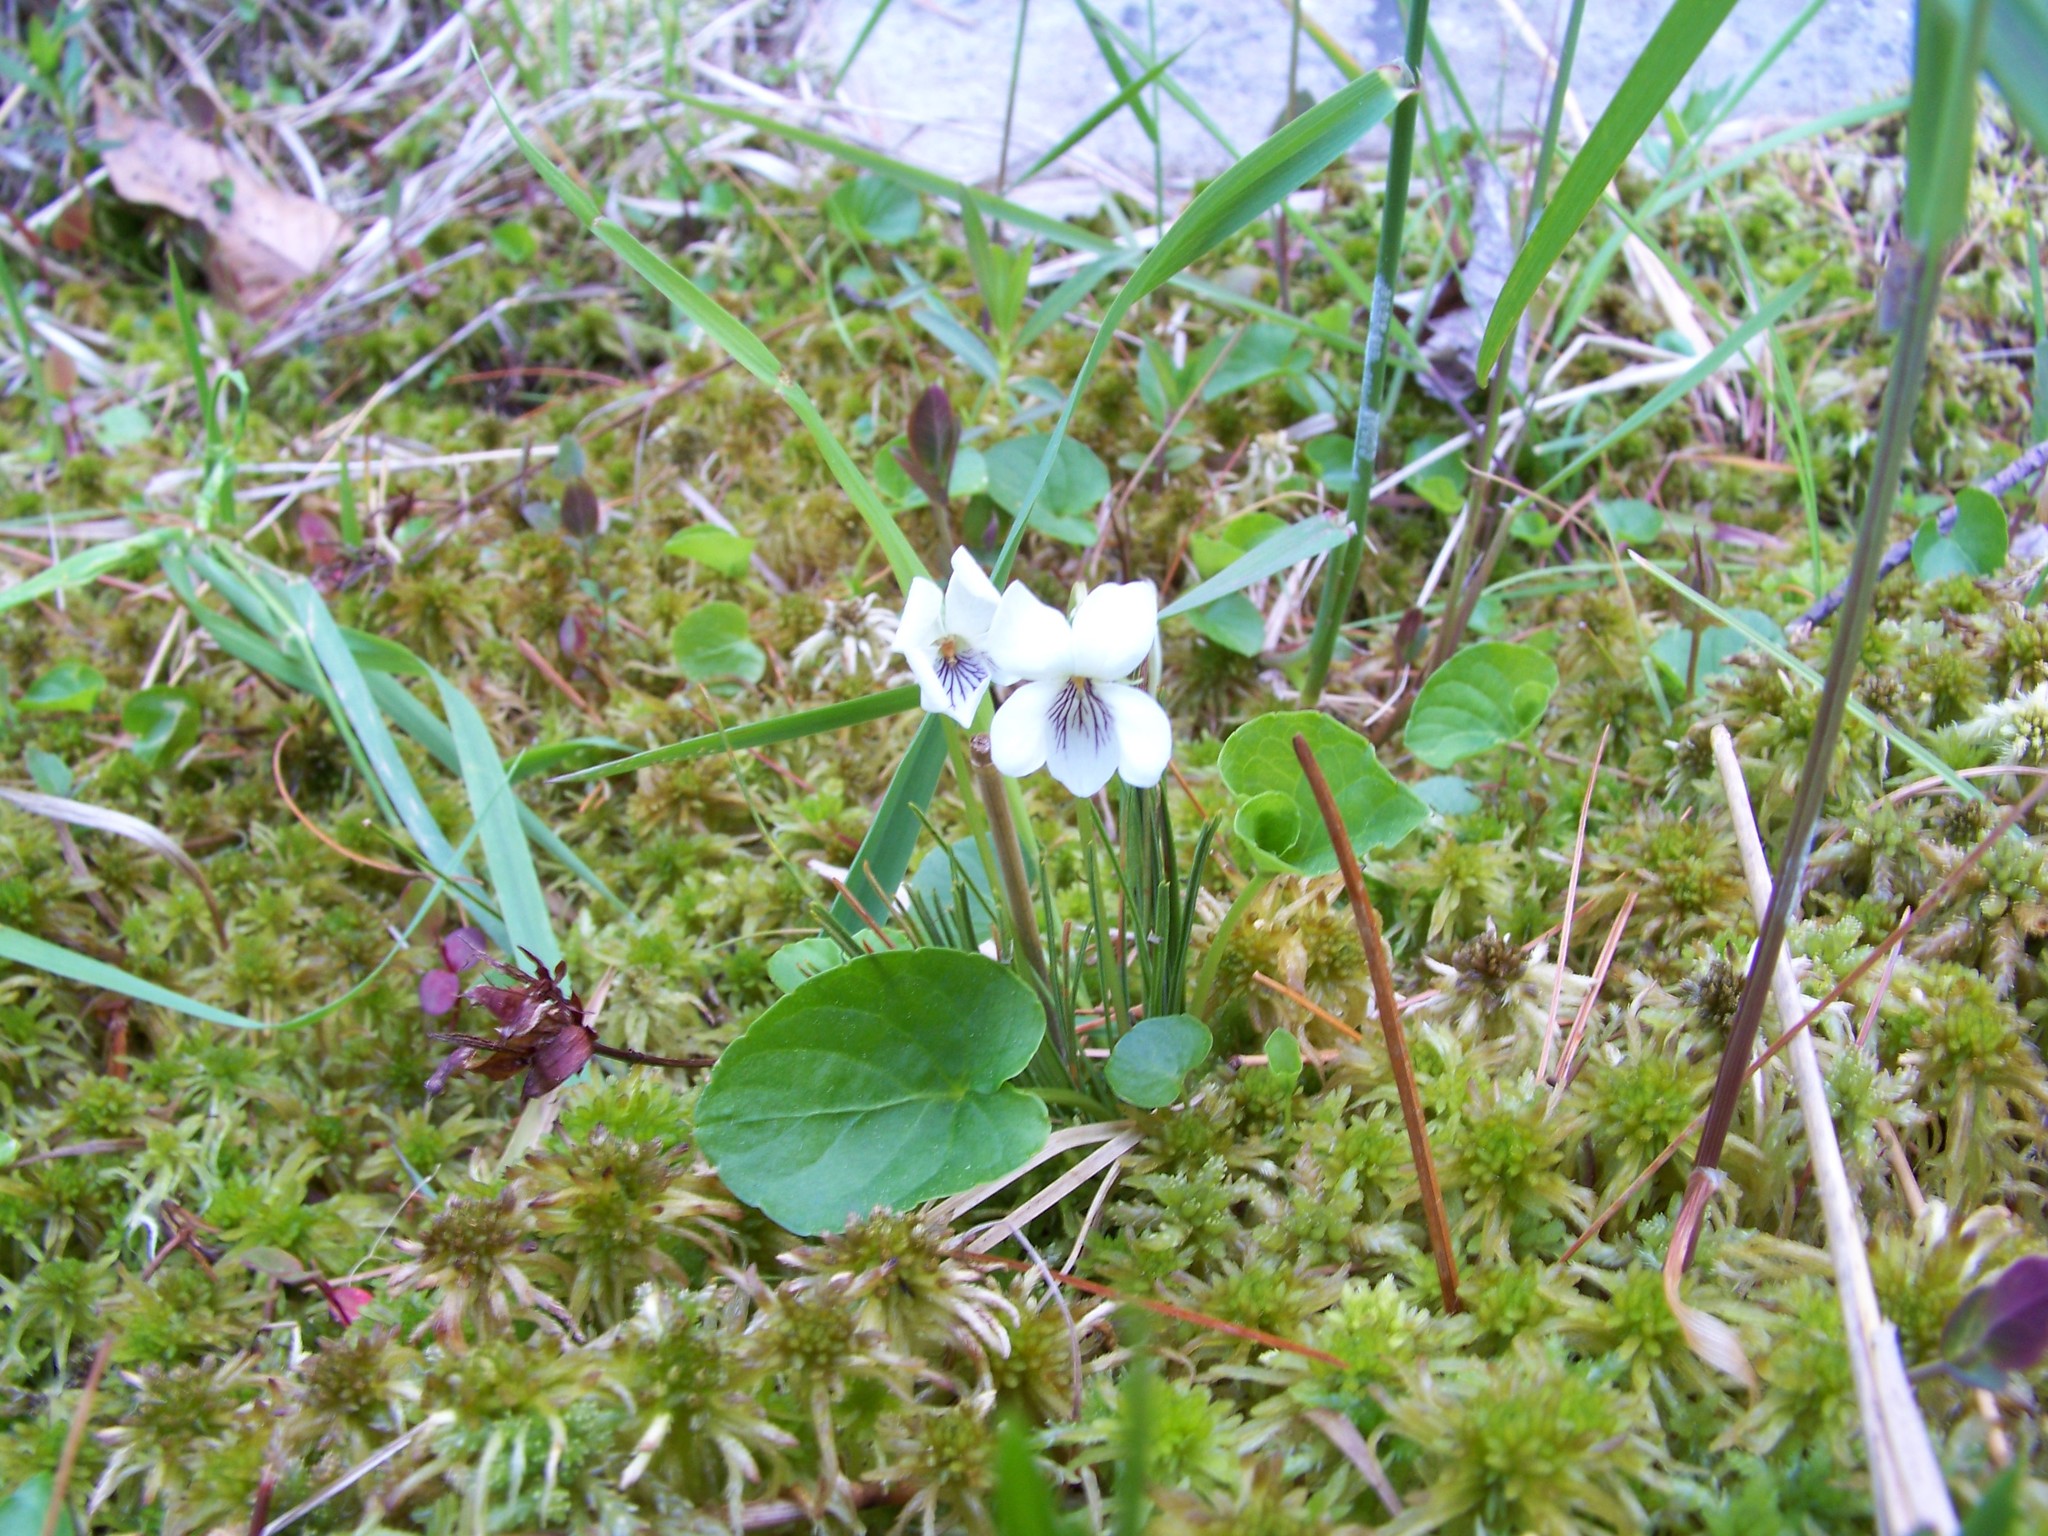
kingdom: Plantae
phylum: Tracheophyta
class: Magnoliopsida
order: Malpighiales
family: Violaceae
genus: Viola
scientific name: Viola minuscula
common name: Northern white violet
